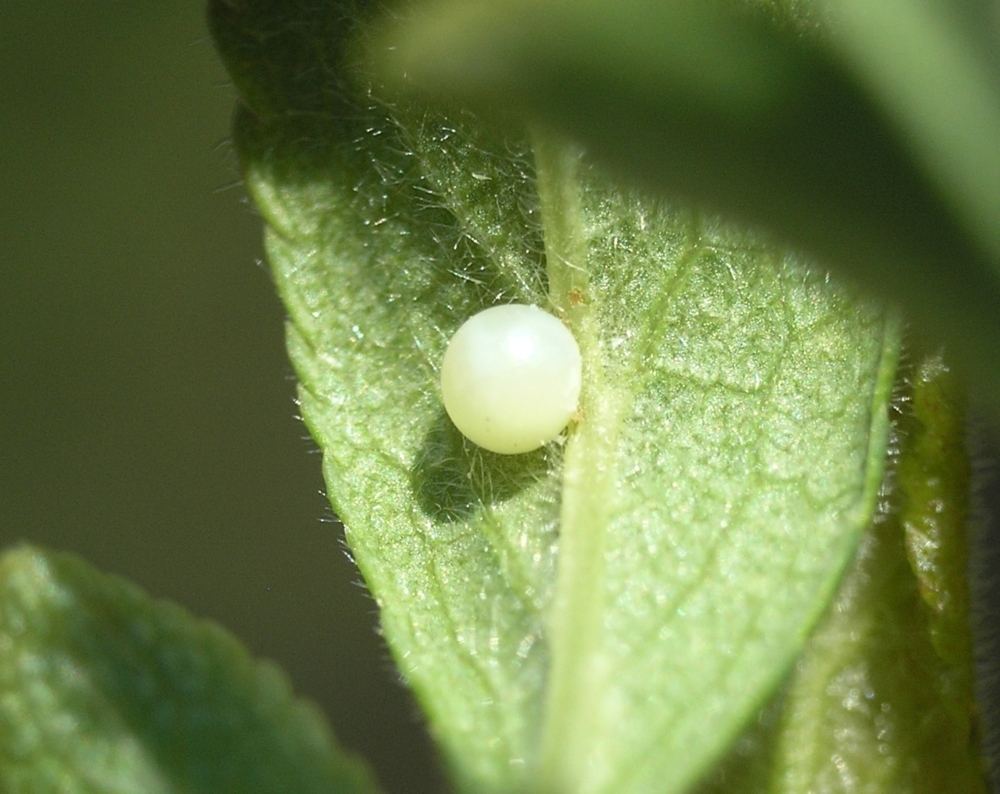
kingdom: Animalia
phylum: Arthropoda
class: Insecta
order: Lepidoptera
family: Papilionidae
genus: Iphiclides
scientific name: Iphiclides podalirius
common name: Scarce swallowtail
